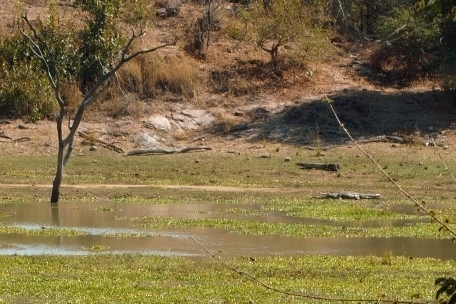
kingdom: Animalia
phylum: Chordata
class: Crocodylia
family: Crocodylidae
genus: Crocodylus
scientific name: Crocodylus niloticus
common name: Nile crocodile
